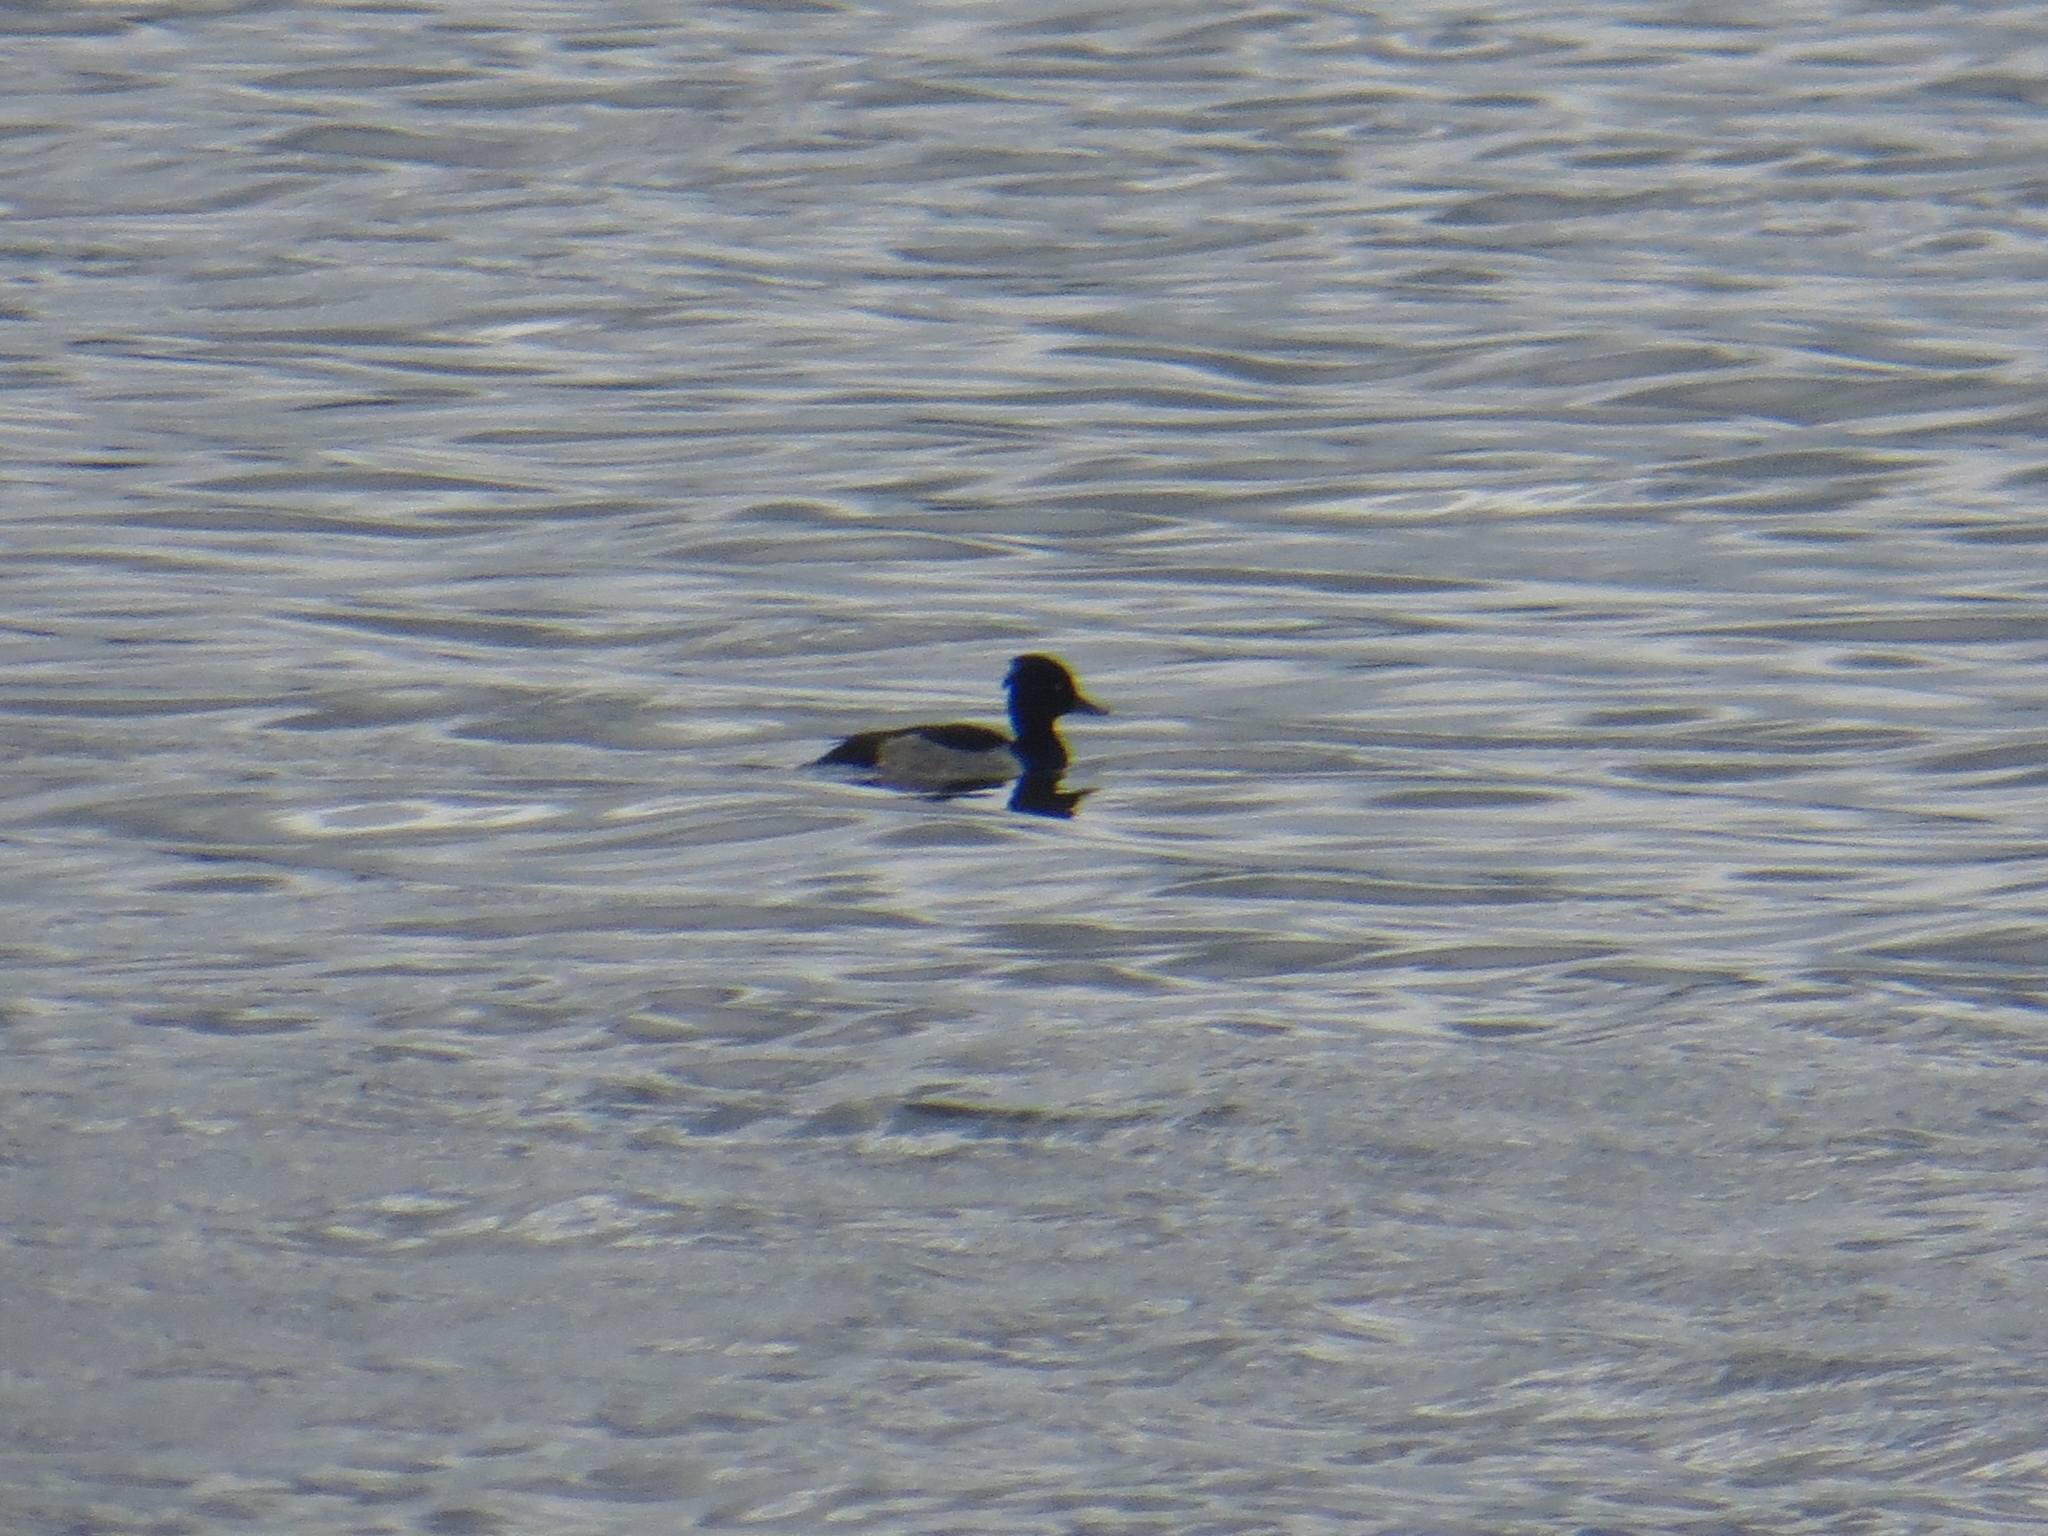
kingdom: Animalia
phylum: Chordata
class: Aves
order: Anseriformes
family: Anatidae
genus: Aythya
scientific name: Aythya fuligula
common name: Tufted duck
